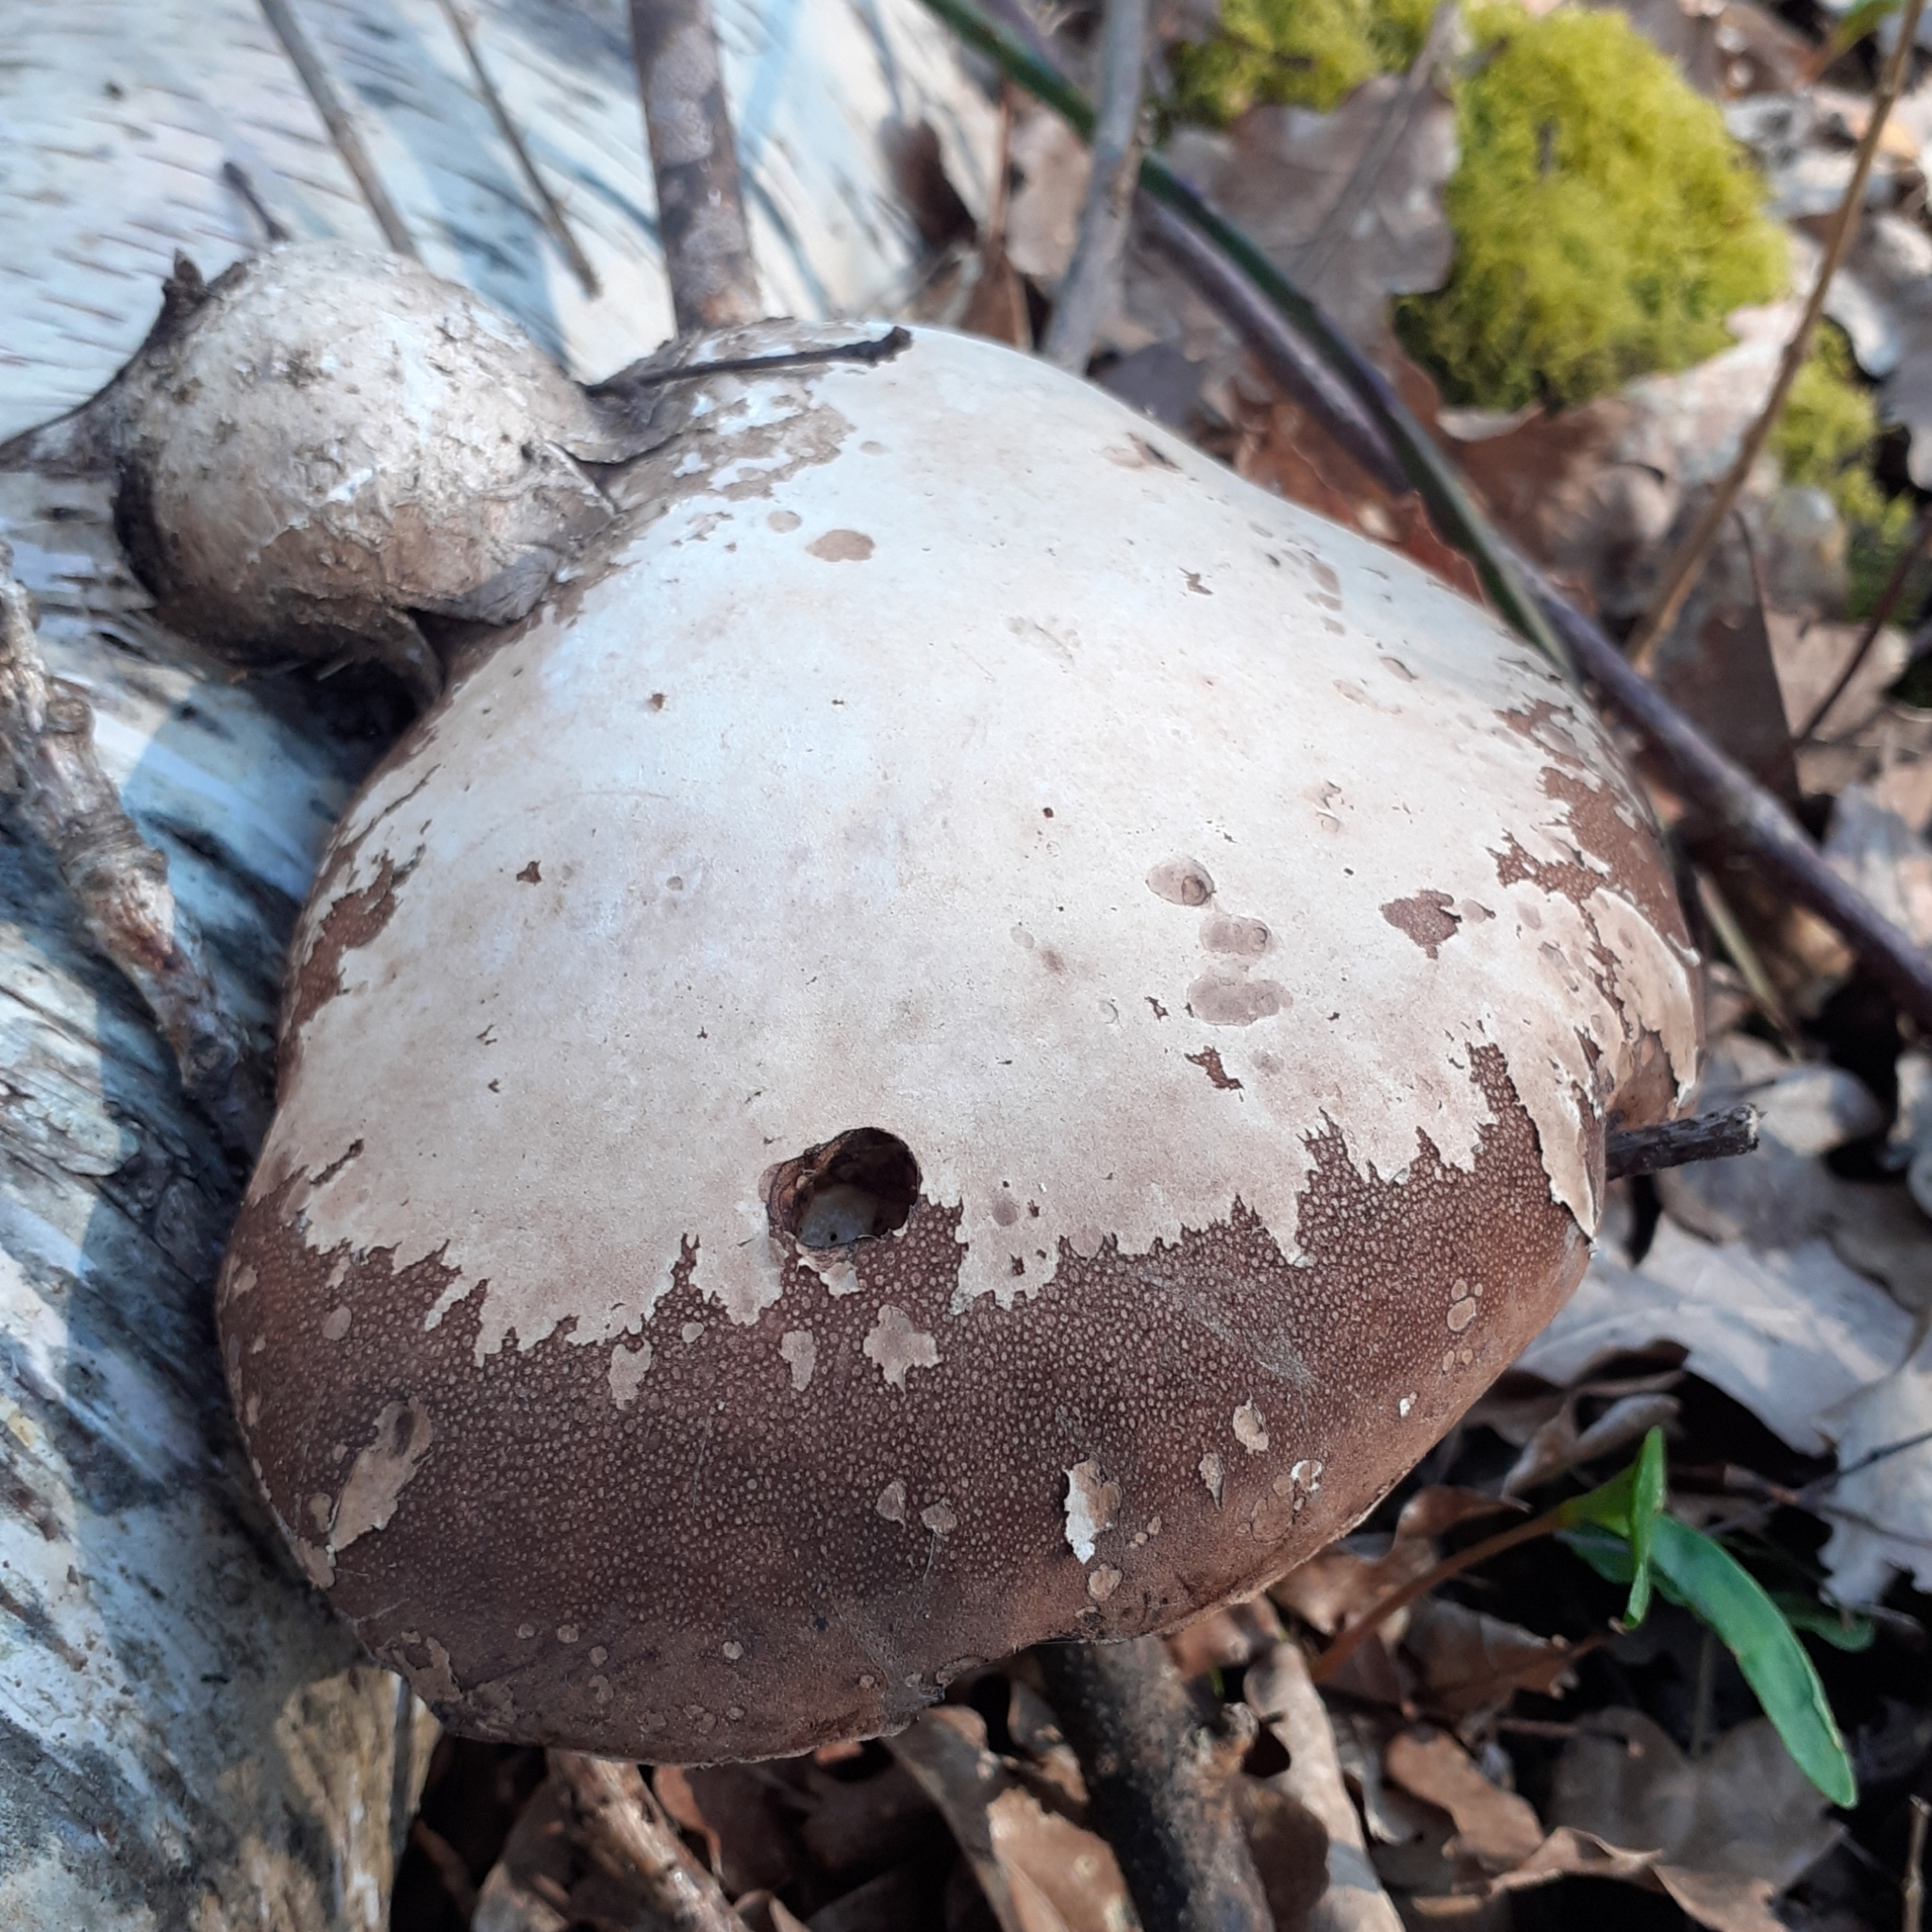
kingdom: Fungi
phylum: Basidiomycota
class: Agaricomycetes
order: Polyporales
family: Fomitopsidaceae
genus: Fomitopsis
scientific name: Fomitopsis betulina
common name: Birch polypore
